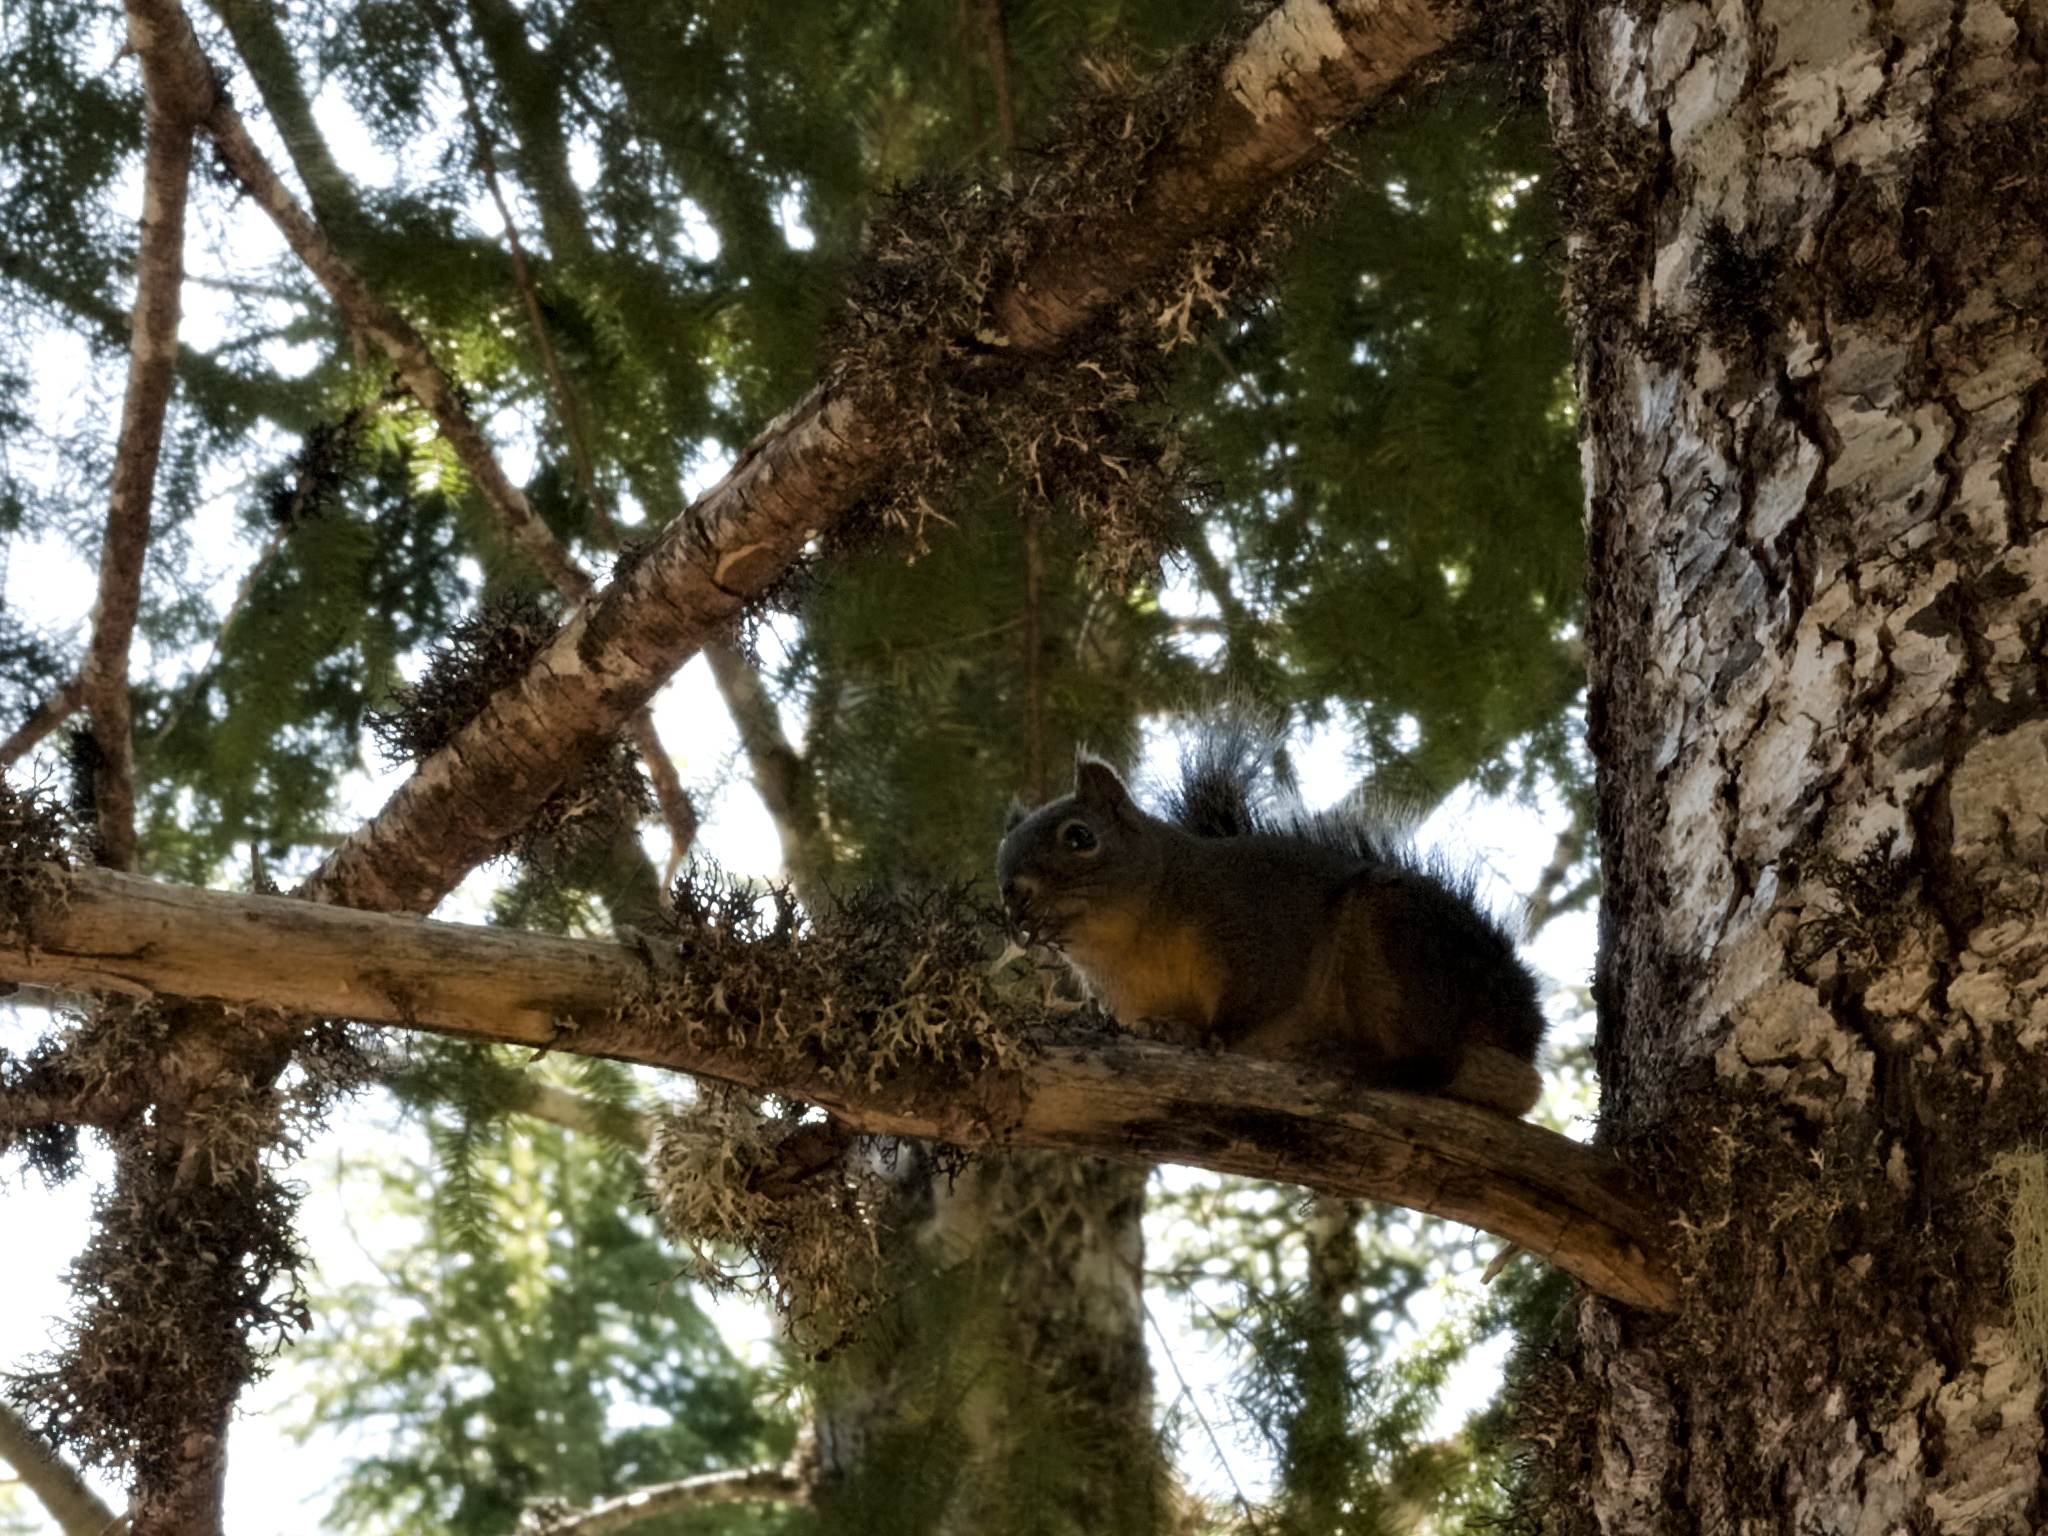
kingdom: Animalia
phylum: Chordata
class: Mammalia
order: Rodentia
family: Sciuridae
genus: Tamiasciurus
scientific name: Tamiasciurus douglasii
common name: Douglas's squirrel
